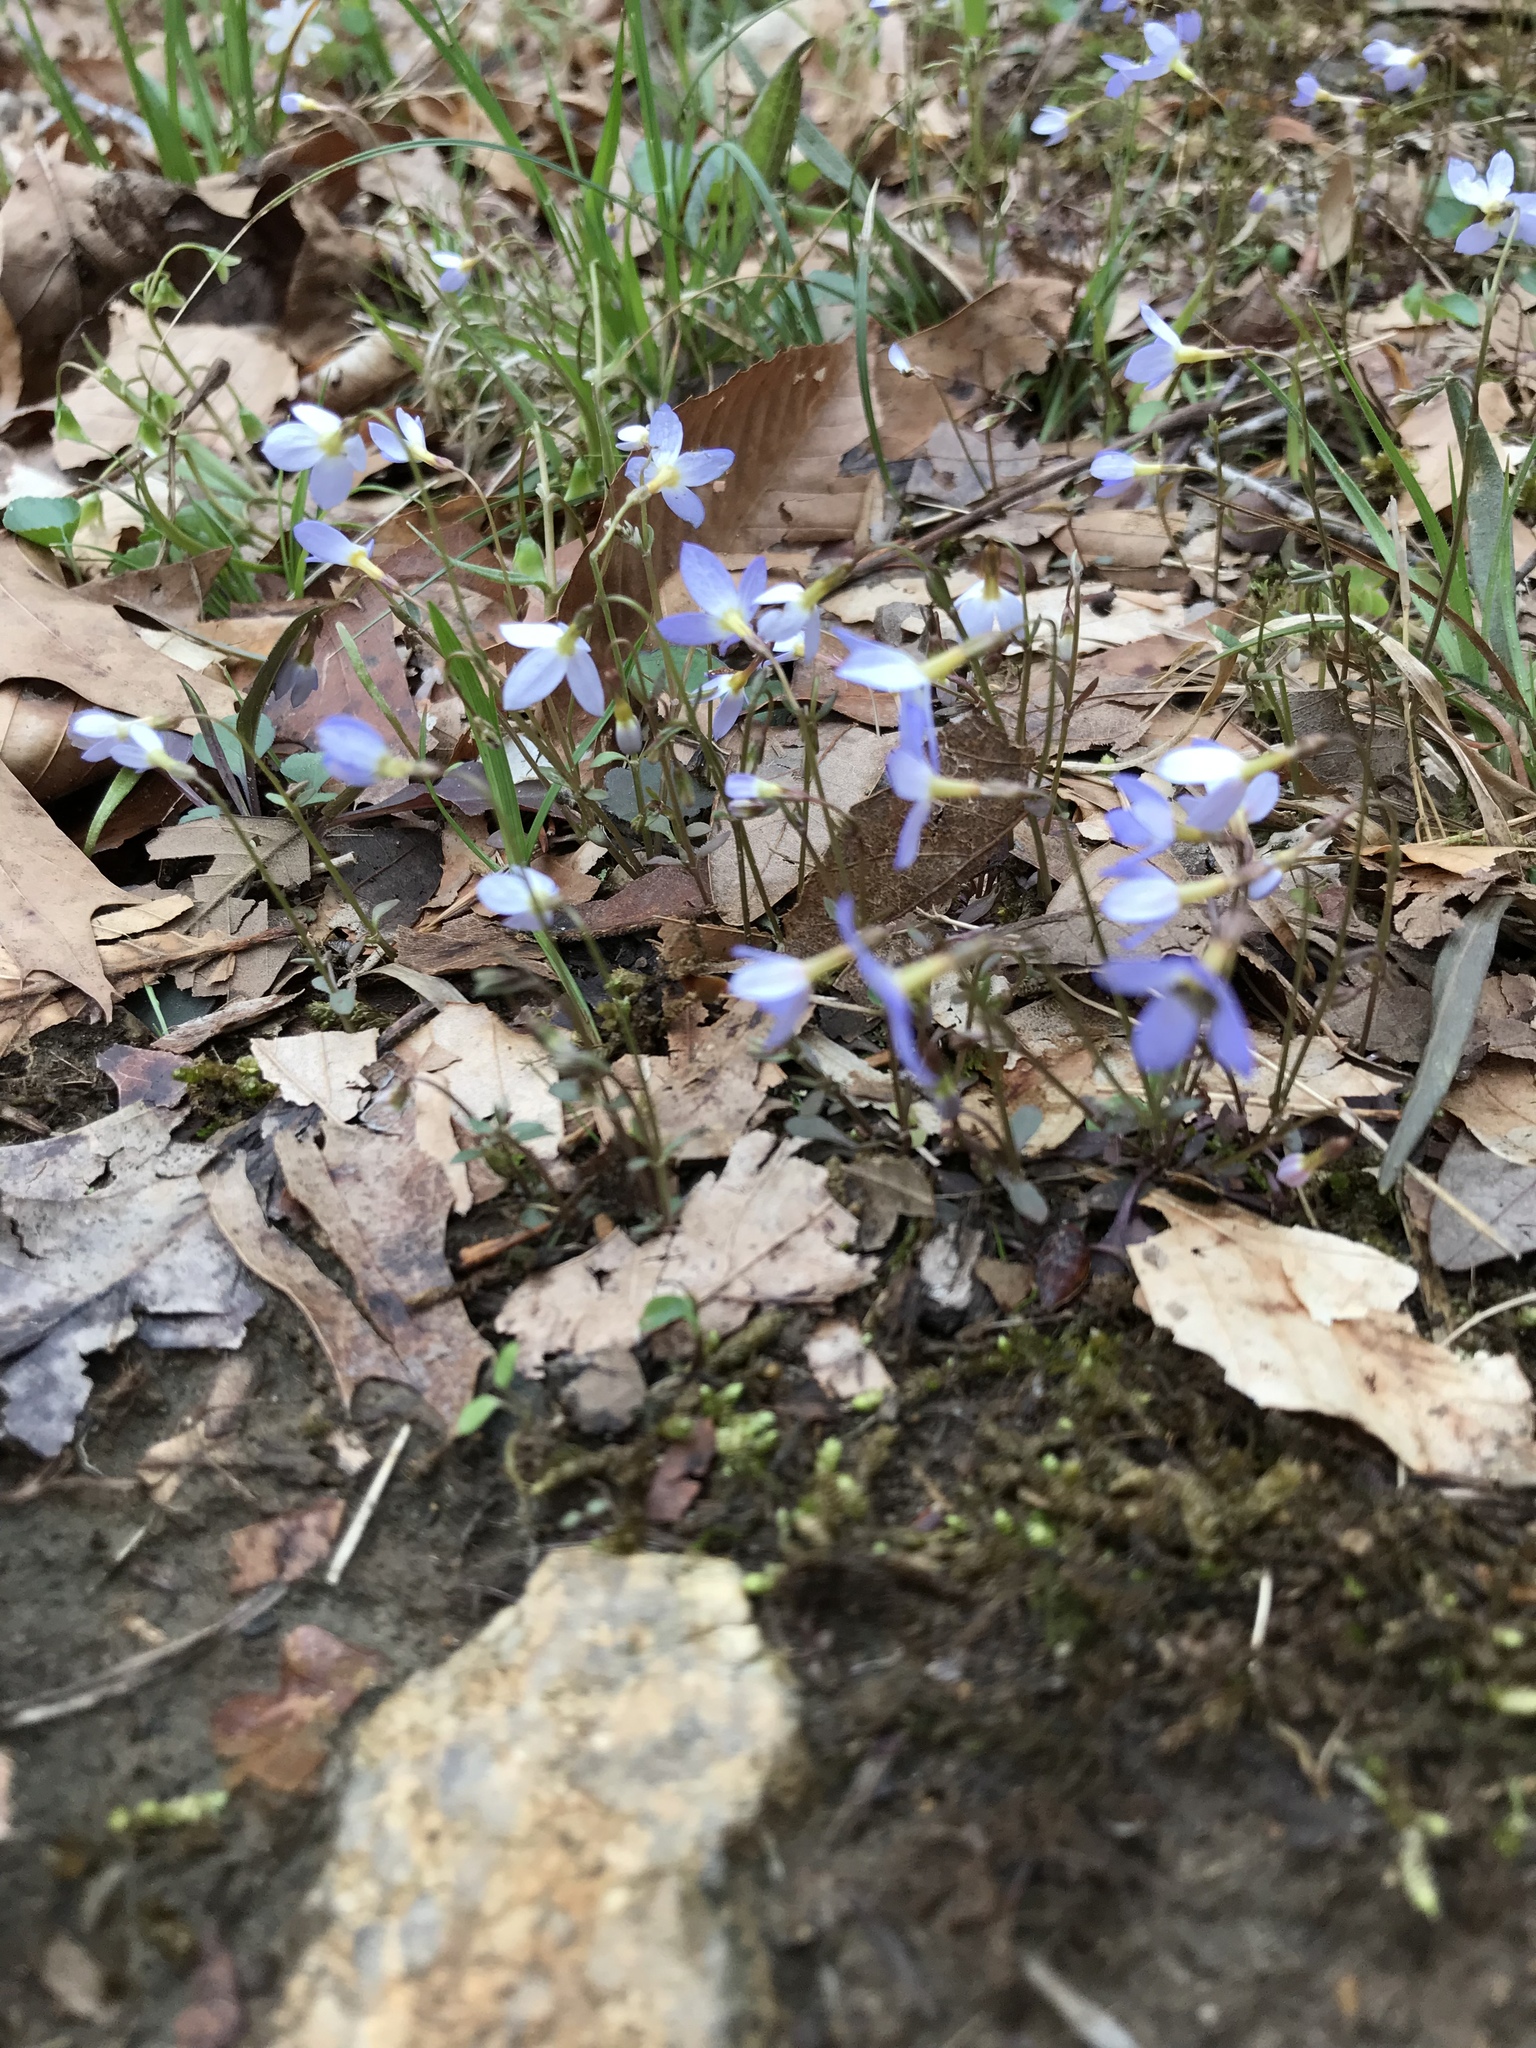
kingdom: Plantae
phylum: Tracheophyta
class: Magnoliopsida
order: Gentianales
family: Rubiaceae
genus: Houstonia
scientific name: Houstonia caerulea
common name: Bluets
